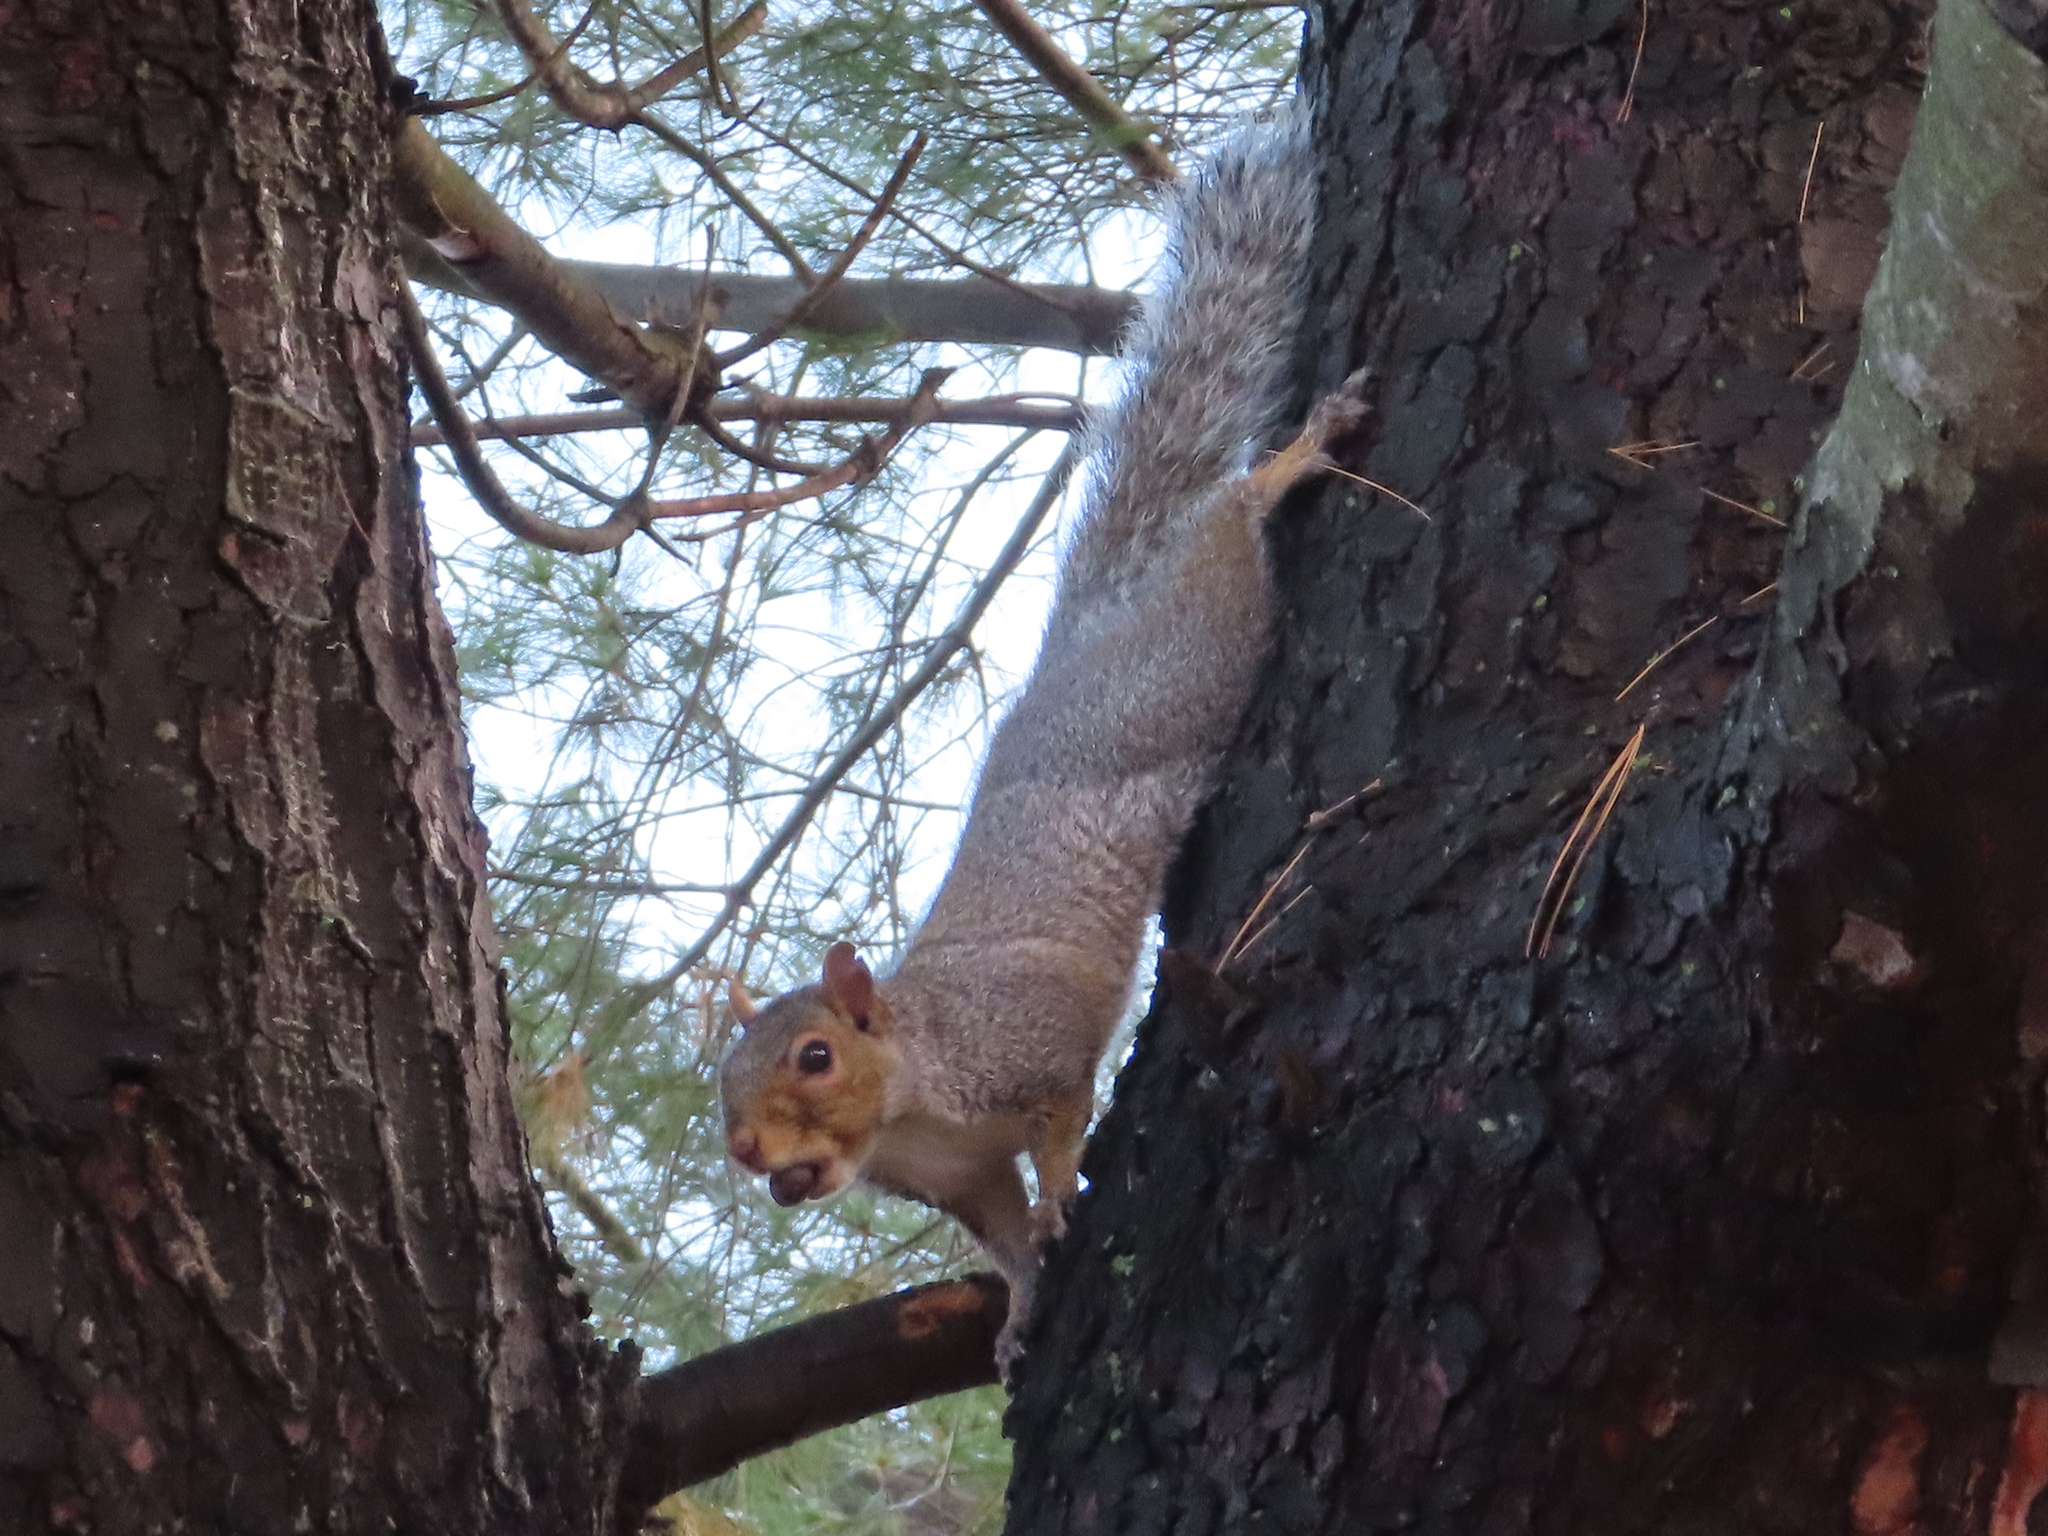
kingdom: Animalia
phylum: Chordata
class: Mammalia
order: Rodentia
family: Sciuridae
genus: Sciurus
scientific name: Sciurus carolinensis
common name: Eastern gray squirrel
